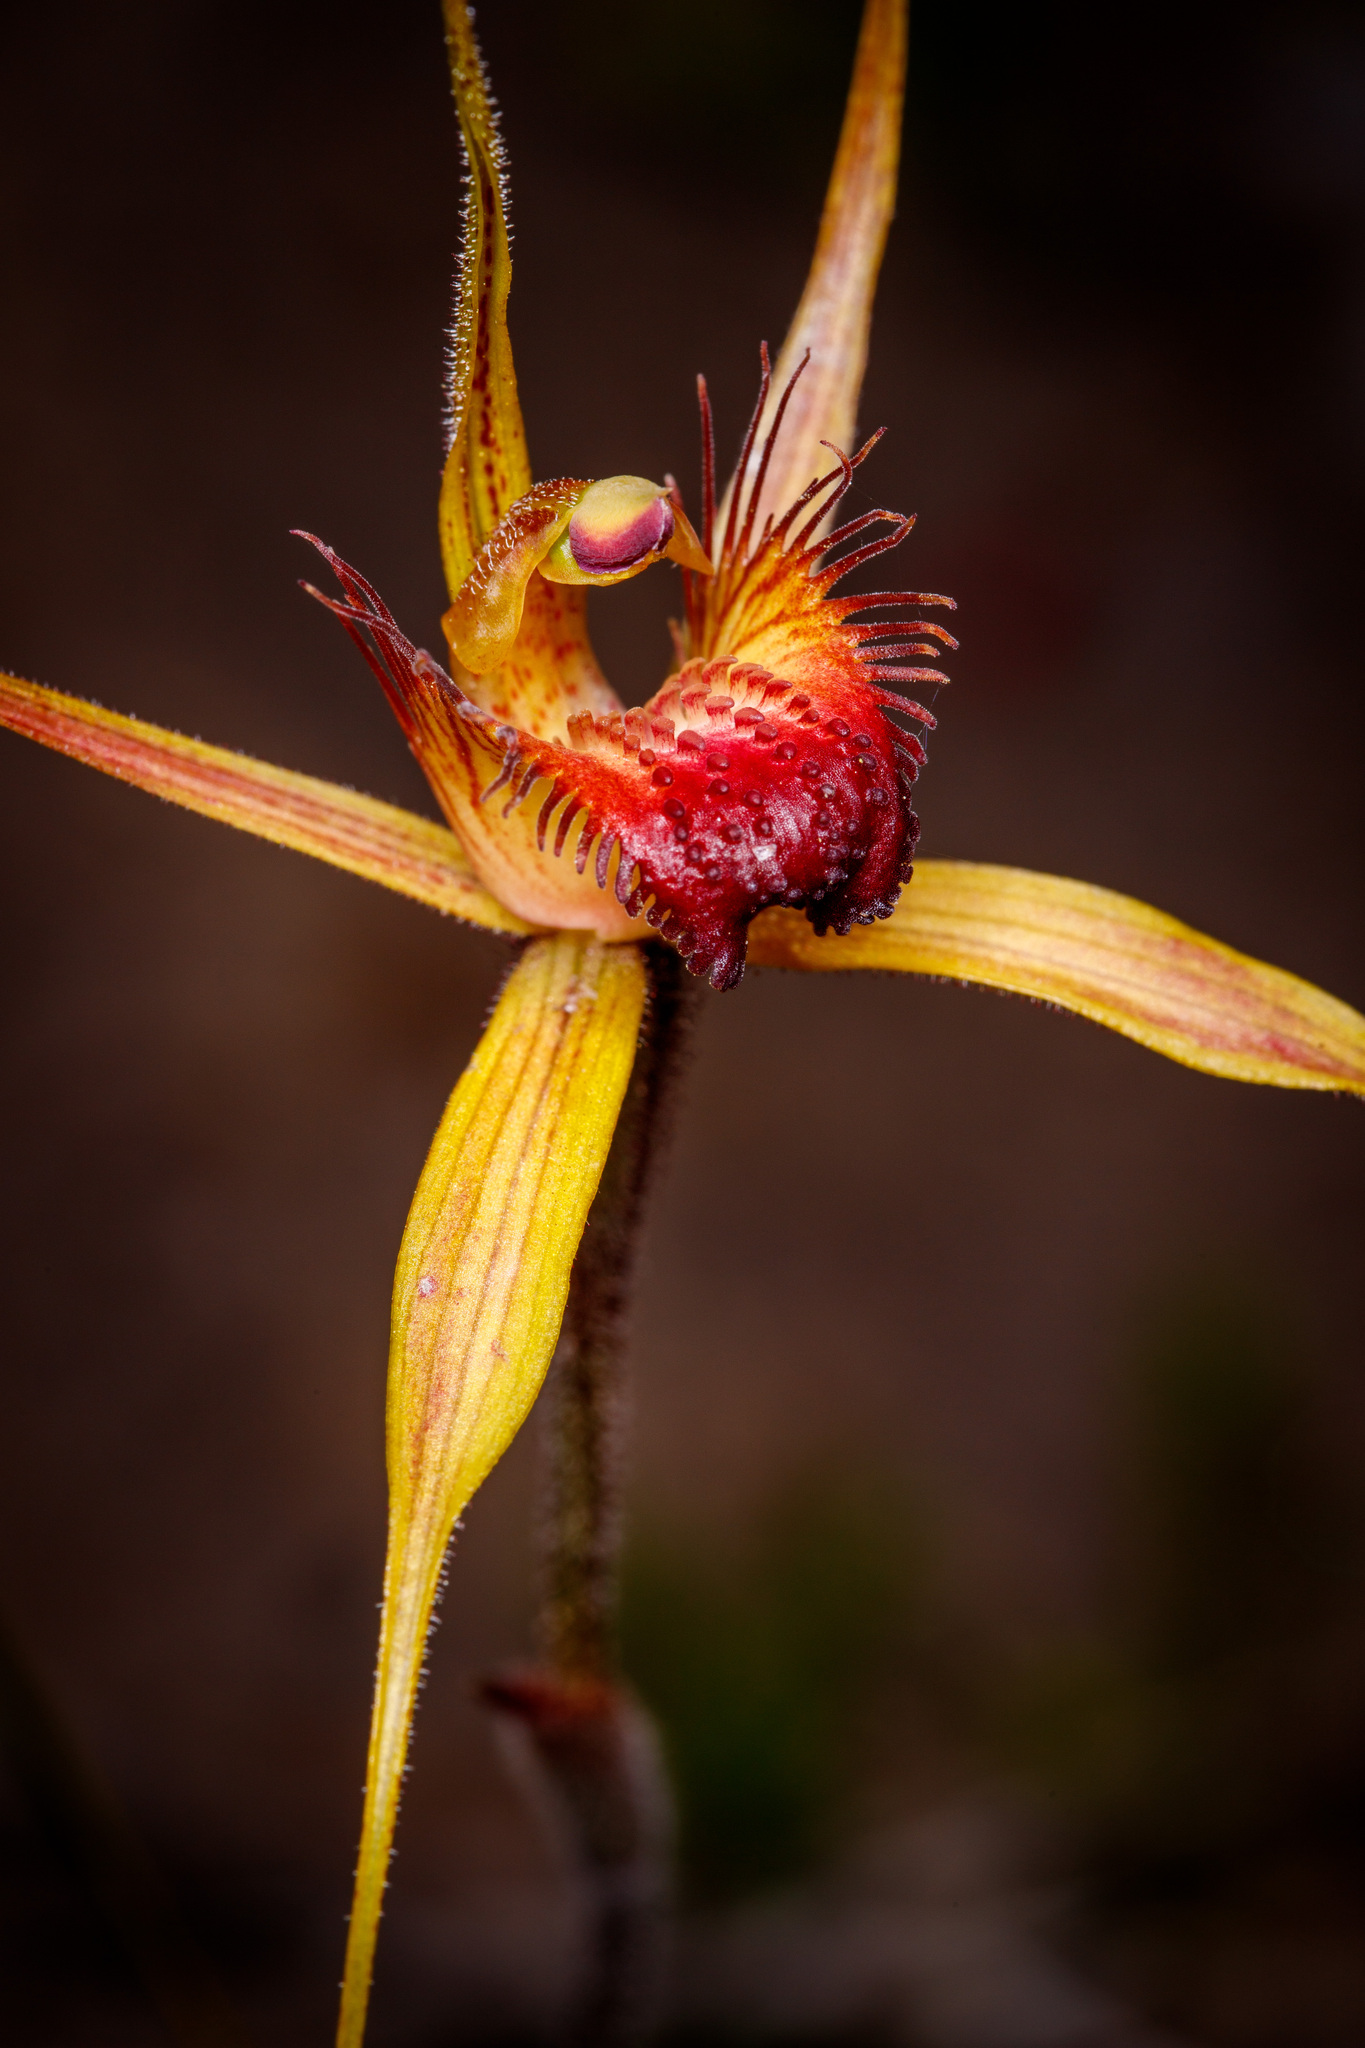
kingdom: Plantae
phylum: Tracheophyta
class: Liliopsida
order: Asparagales
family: Orchidaceae
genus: Caladenia
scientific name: Caladenia pectinata
